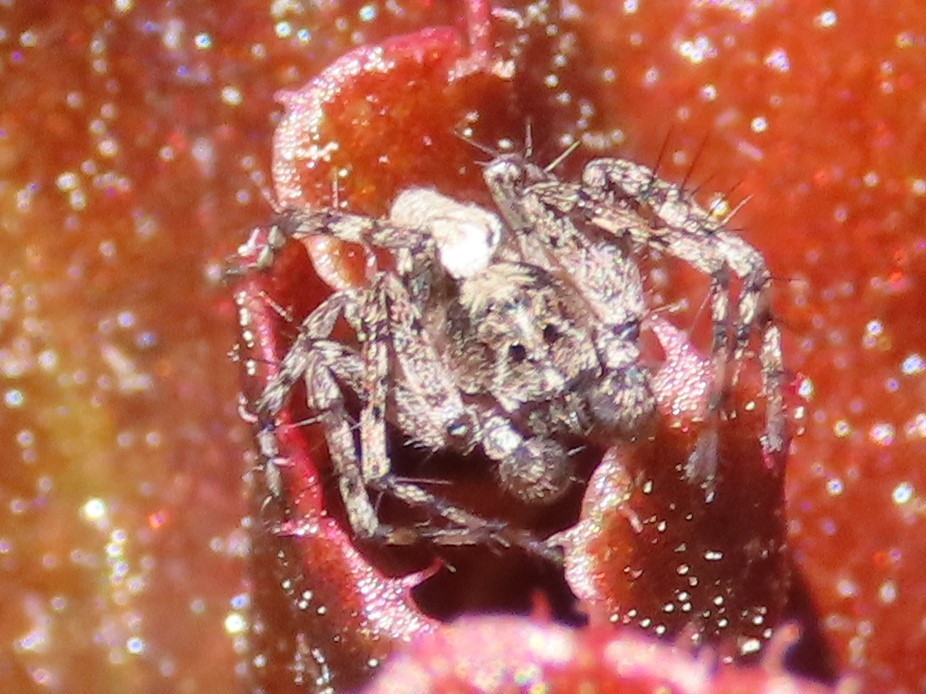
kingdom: Animalia
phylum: Arthropoda
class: Arachnida
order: Araneae
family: Oxyopidae
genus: Oxyopes
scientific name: Oxyopes scalaris
